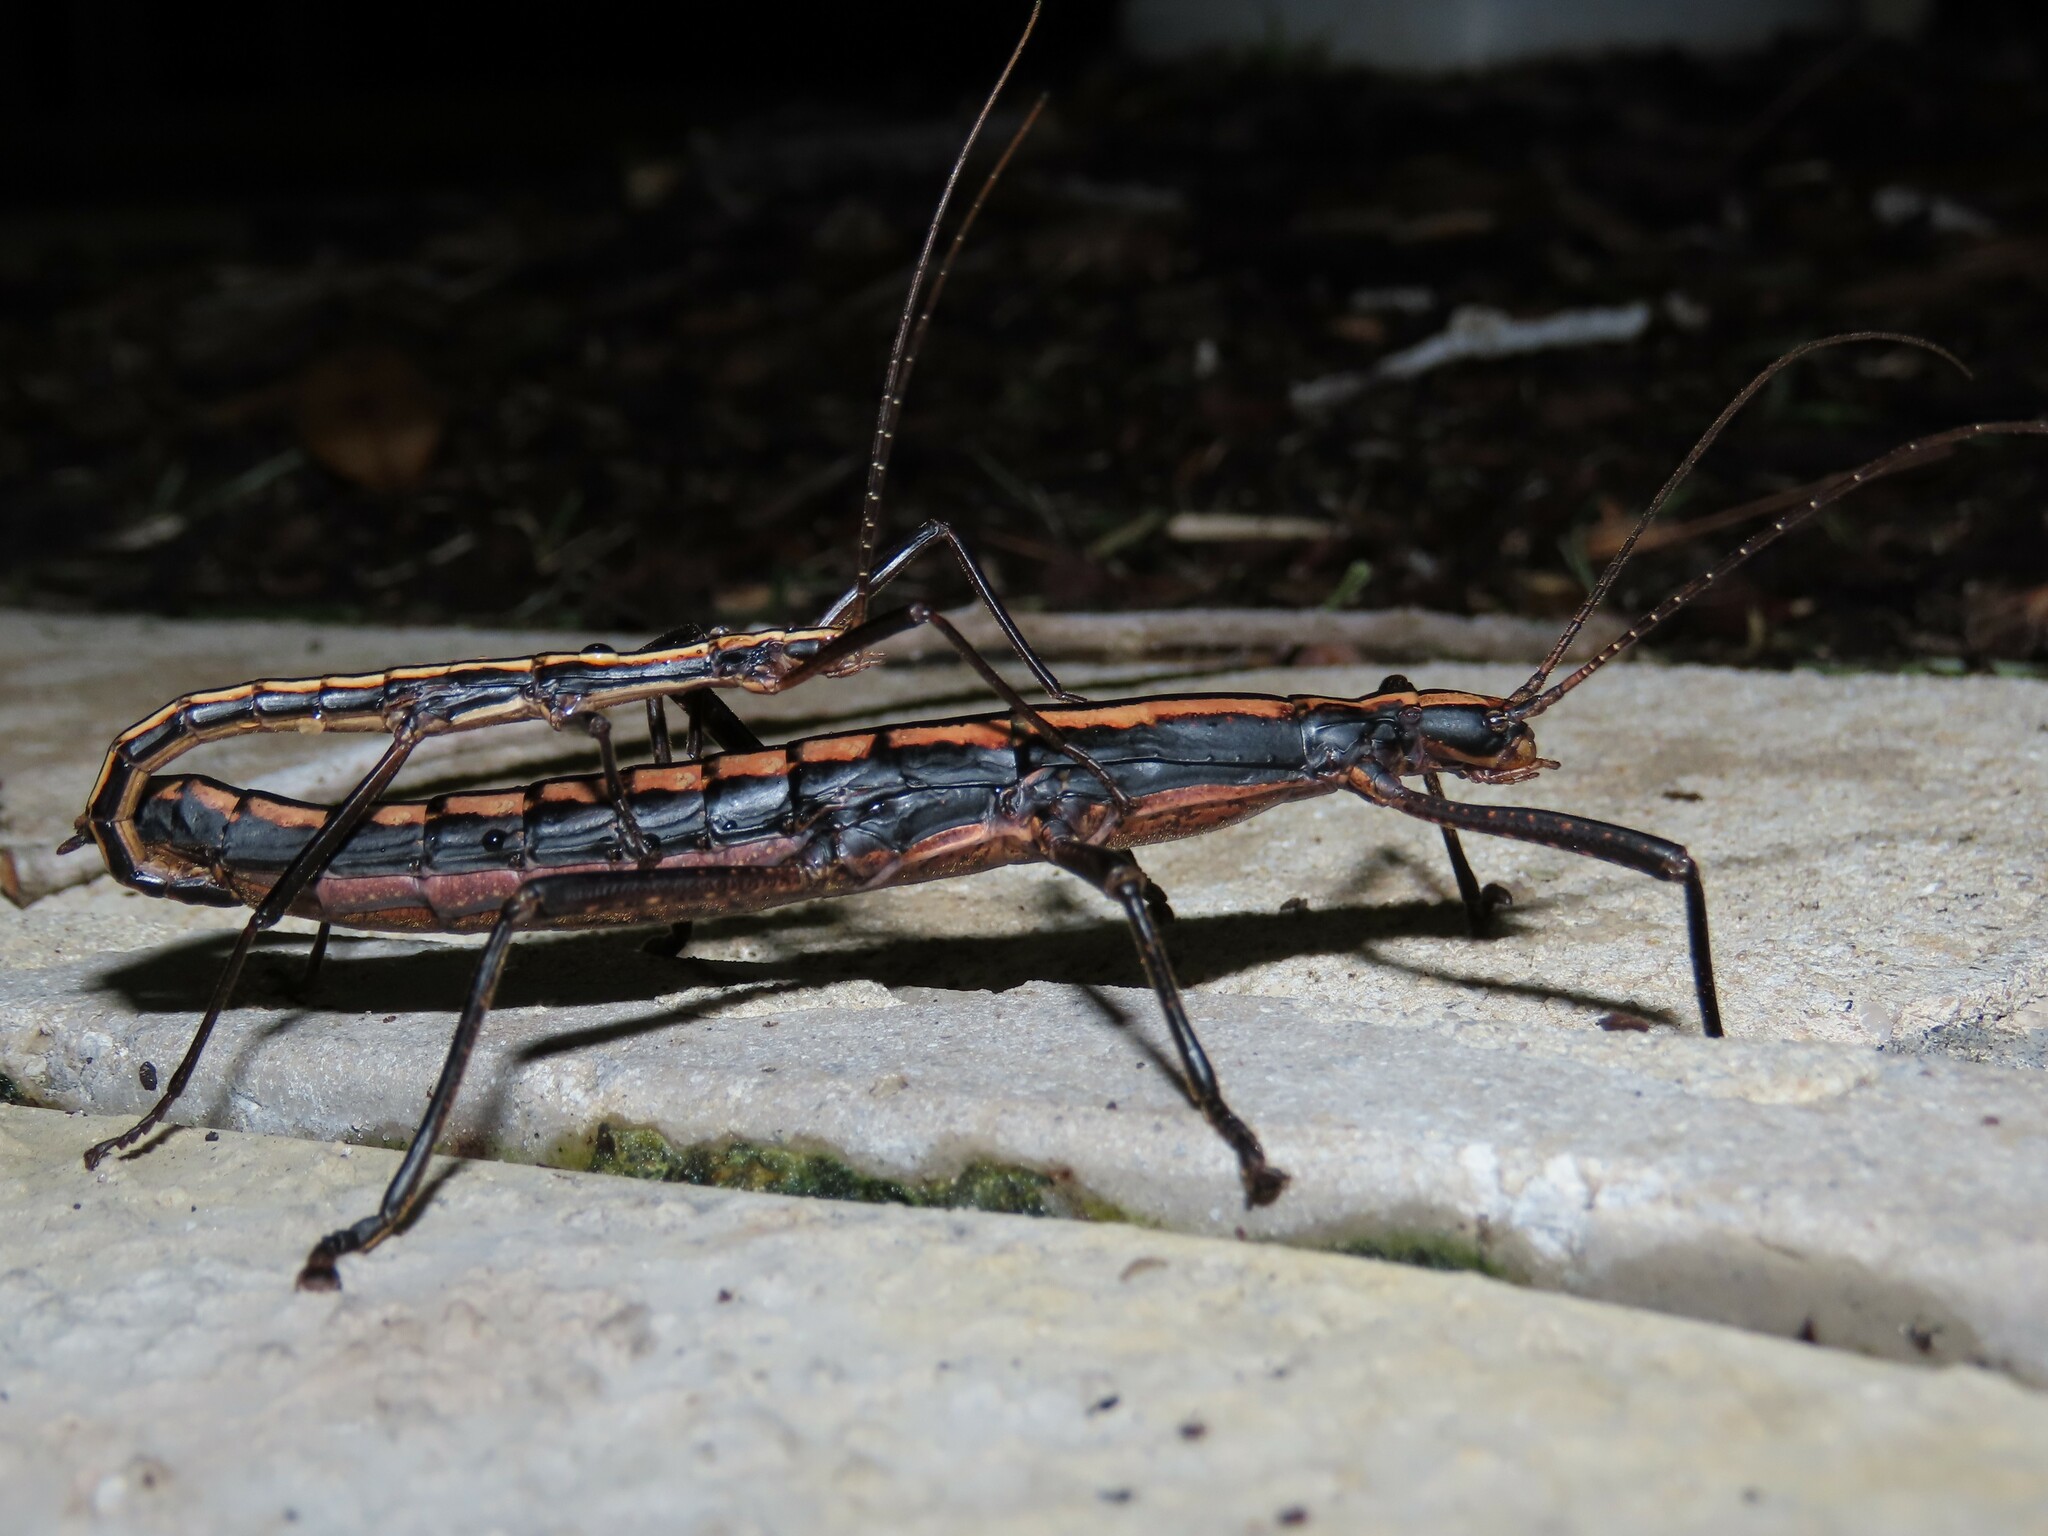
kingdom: Animalia
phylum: Arthropoda
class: Insecta
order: Phasmida
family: Pseudophasmatidae
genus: Anisomorpha
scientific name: Anisomorpha buprestoides
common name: Florida stick insect
